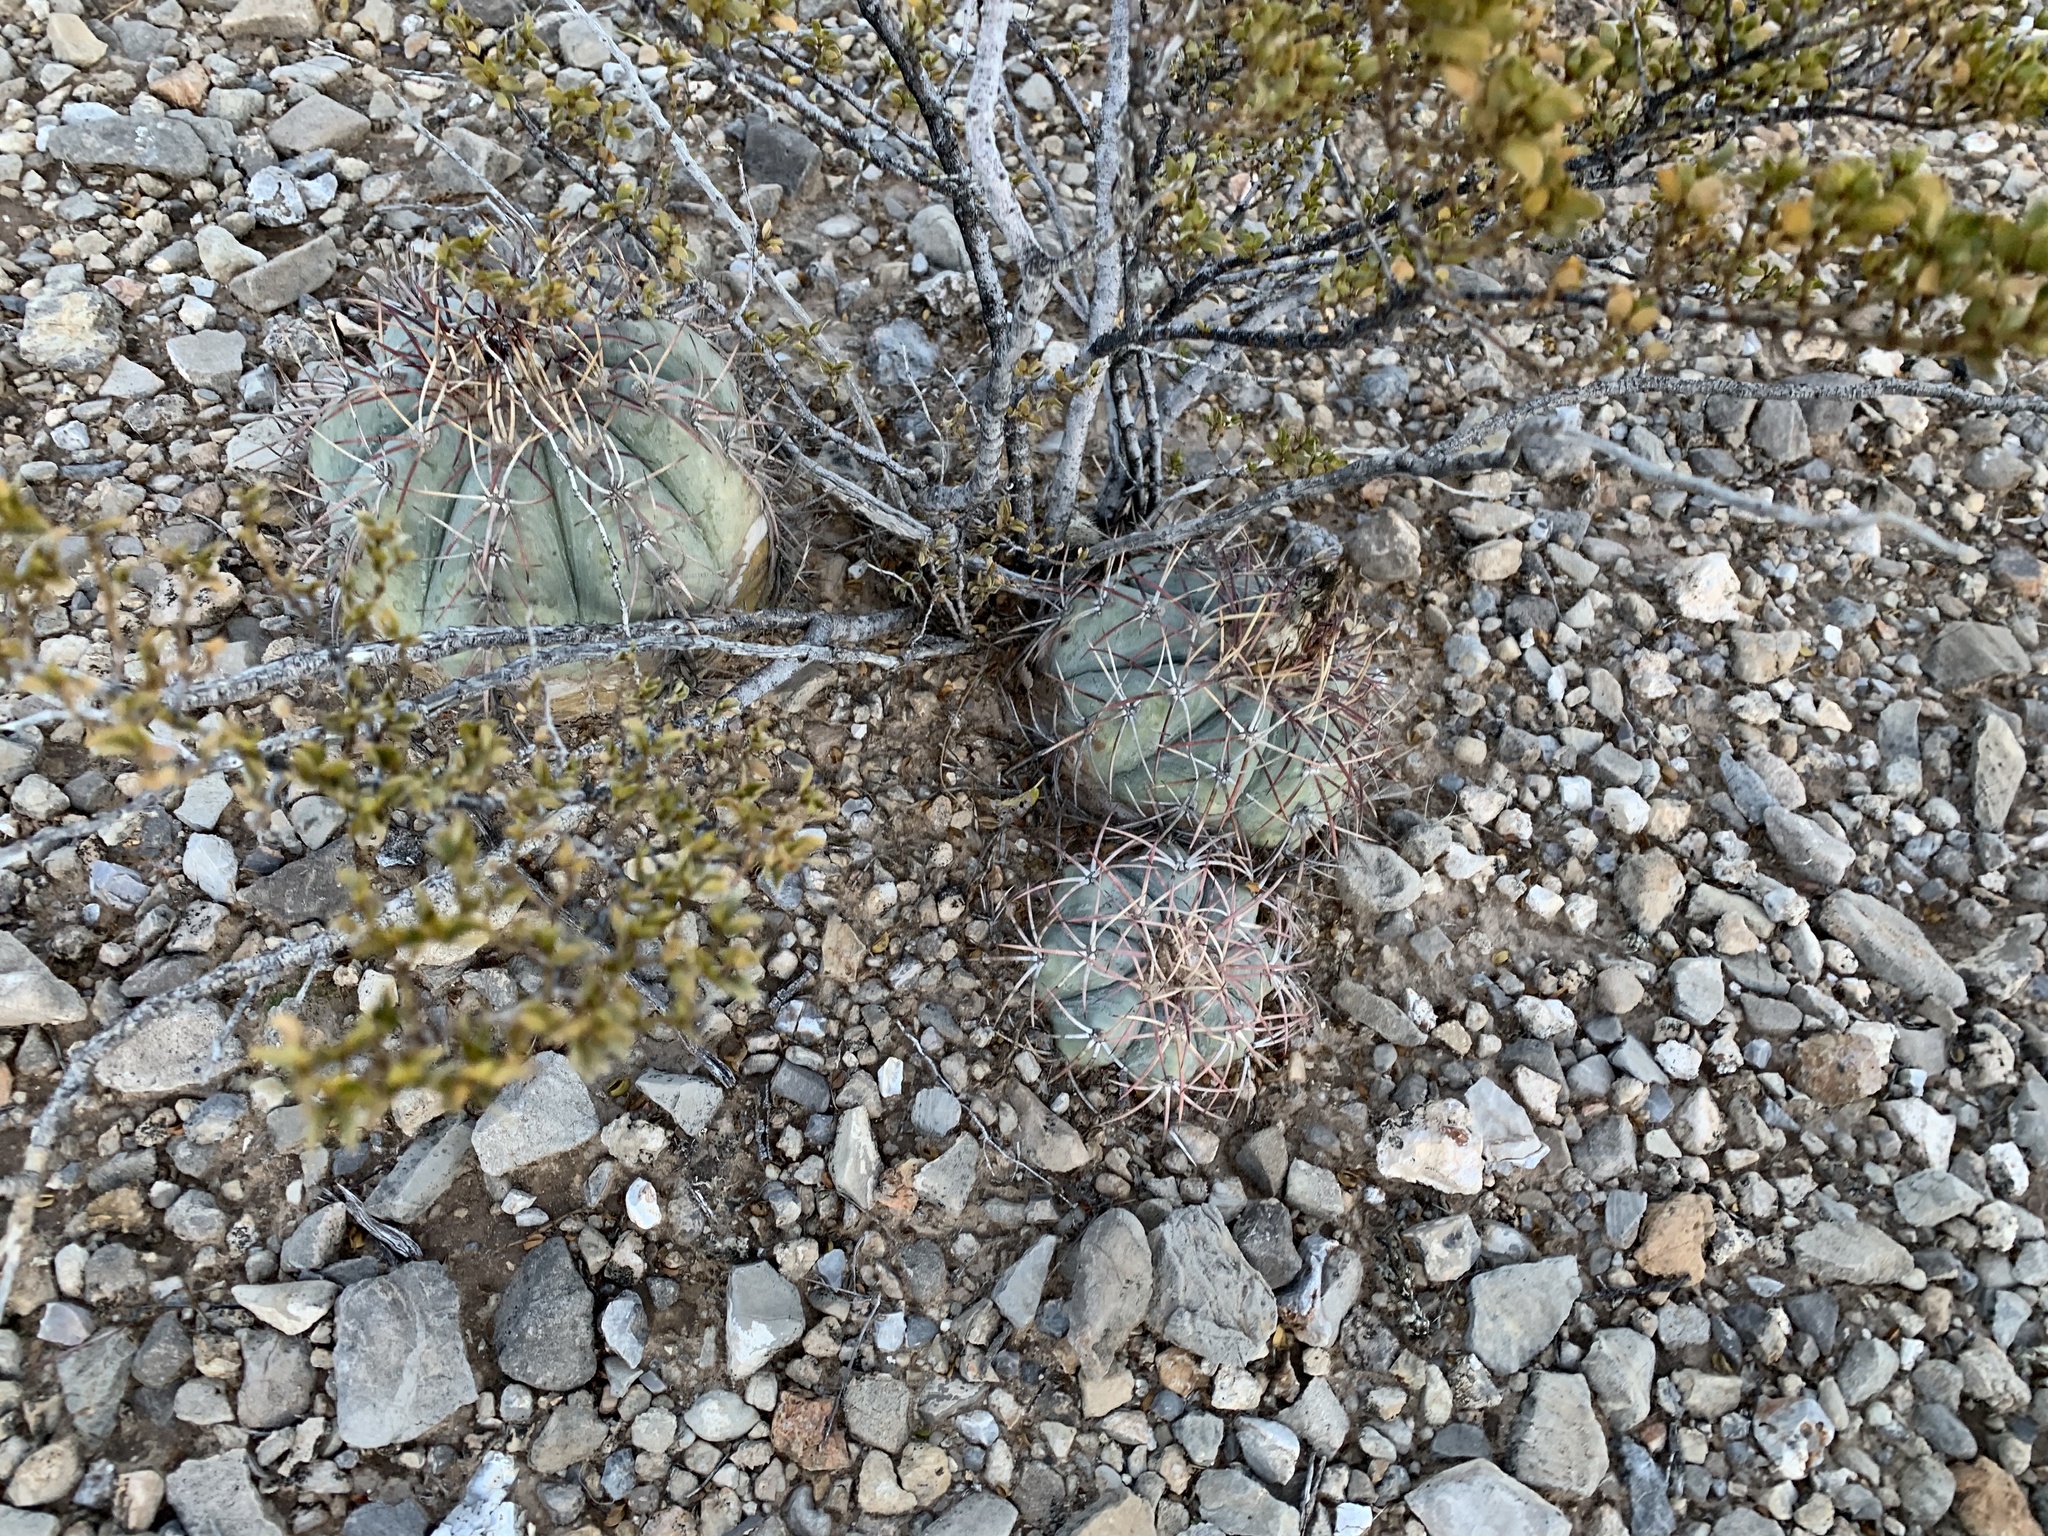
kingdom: Plantae
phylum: Tracheophyta
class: Magnoliopsida
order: Caryophyllales
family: Cactaceae
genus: Echinocactus
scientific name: Echinocactus horizonthalonius
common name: Devilshead
